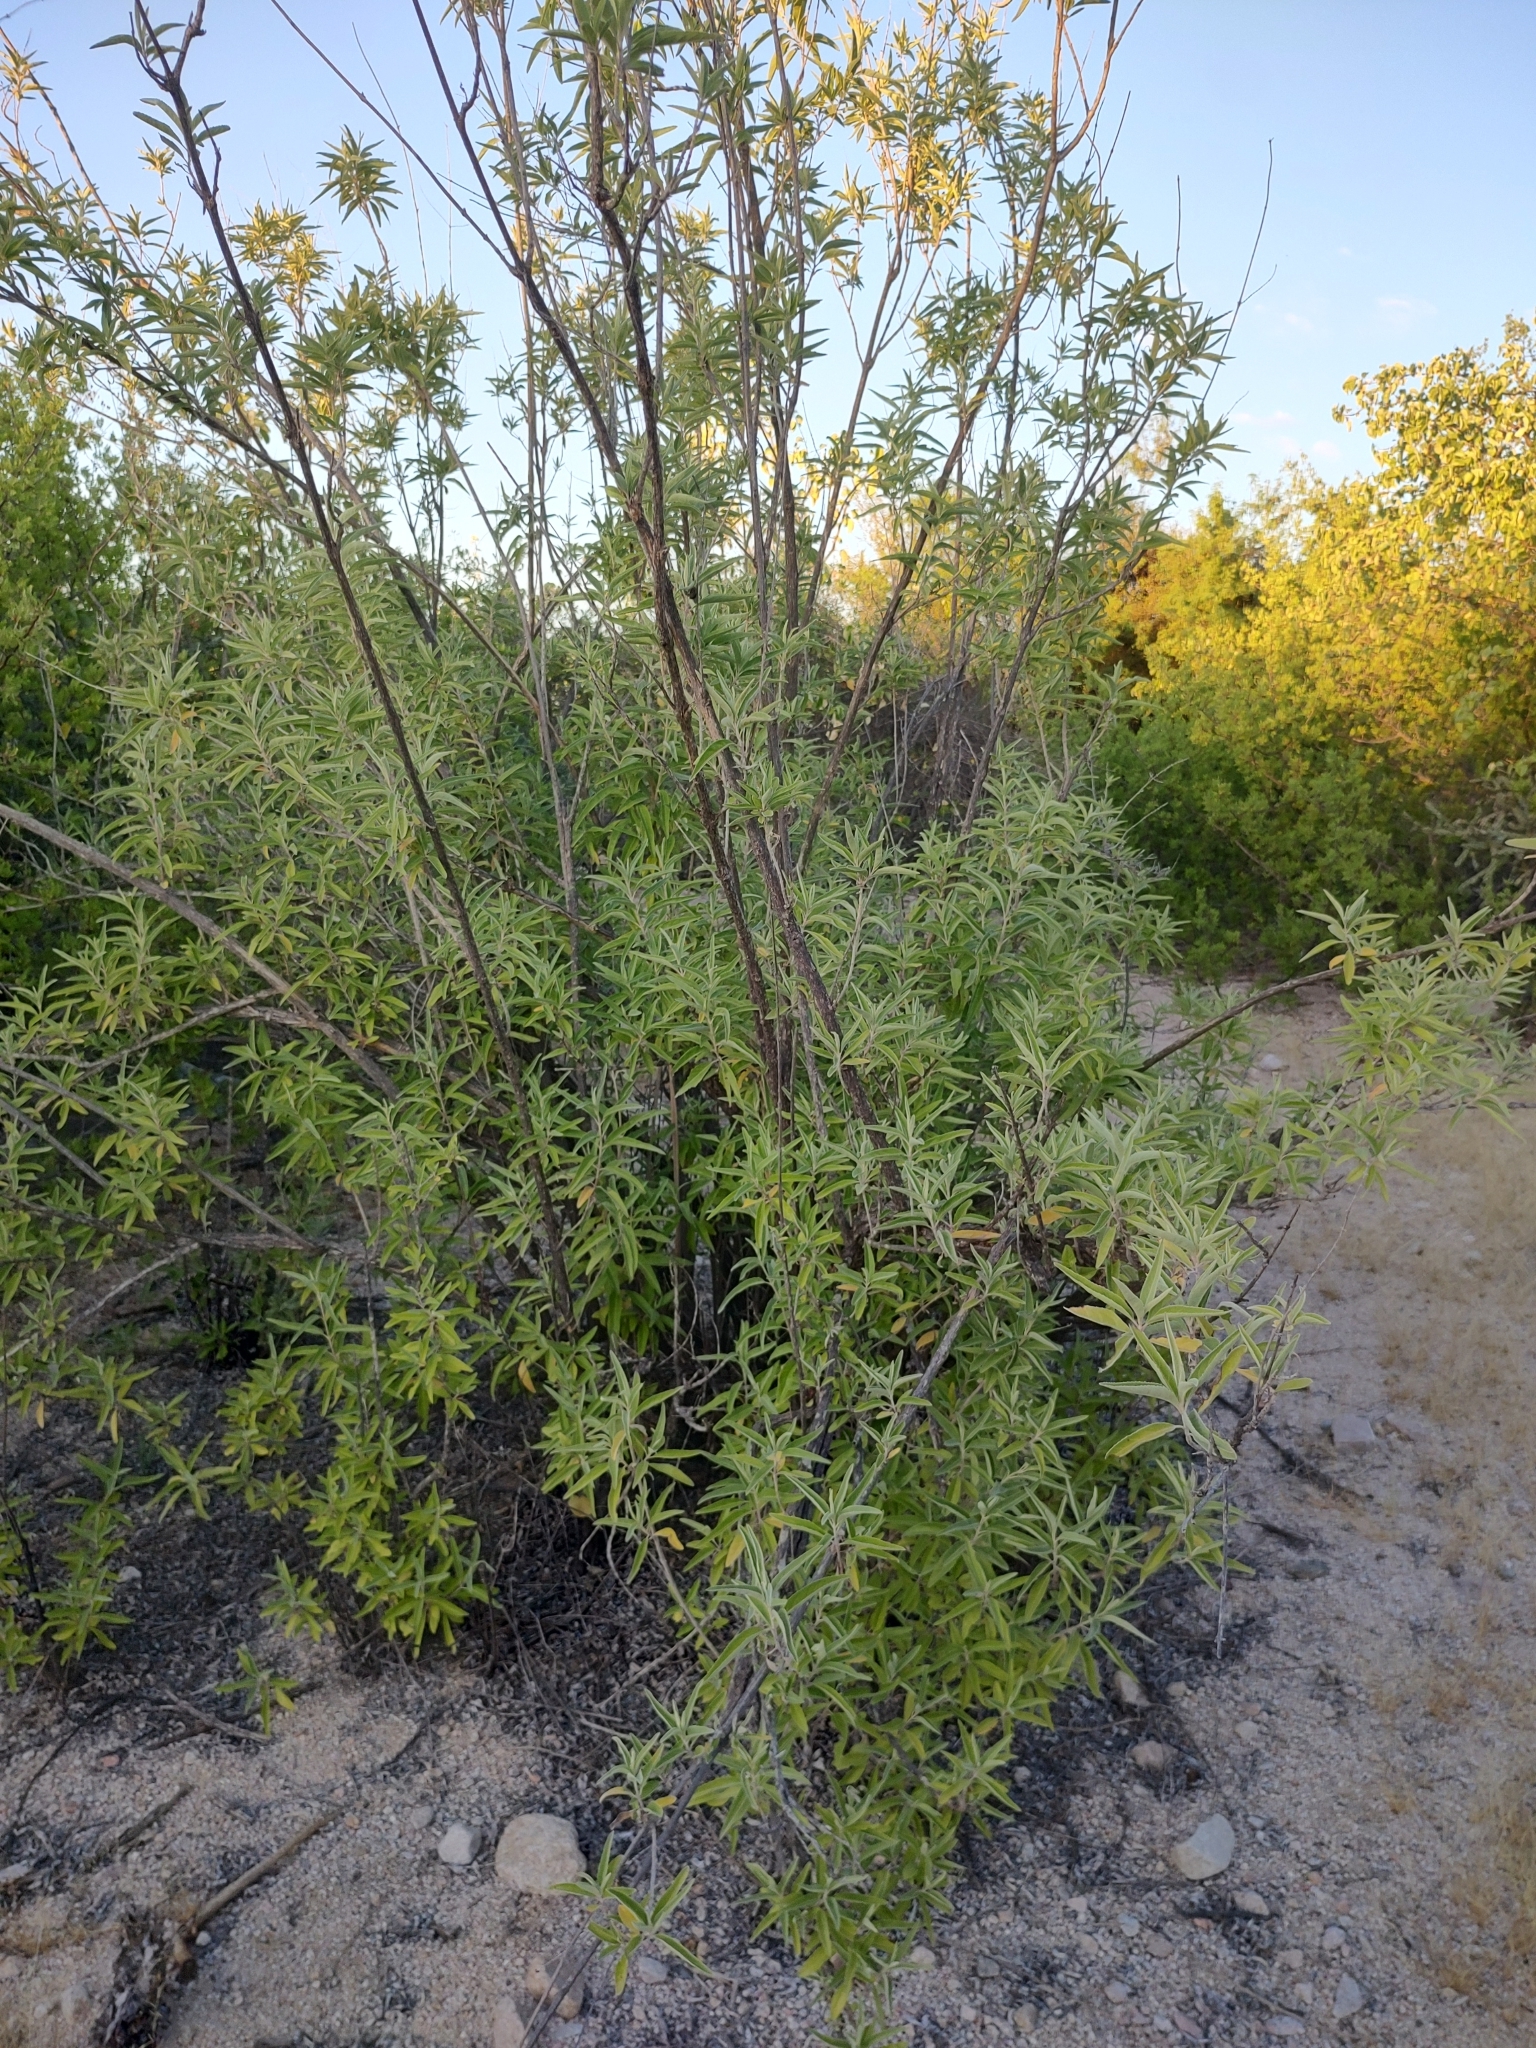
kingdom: Plantae
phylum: Tracheophyta
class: Magnoliopsida
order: Lamiales
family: Lamiaceae
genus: Condea
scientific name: Condea tephrodes
